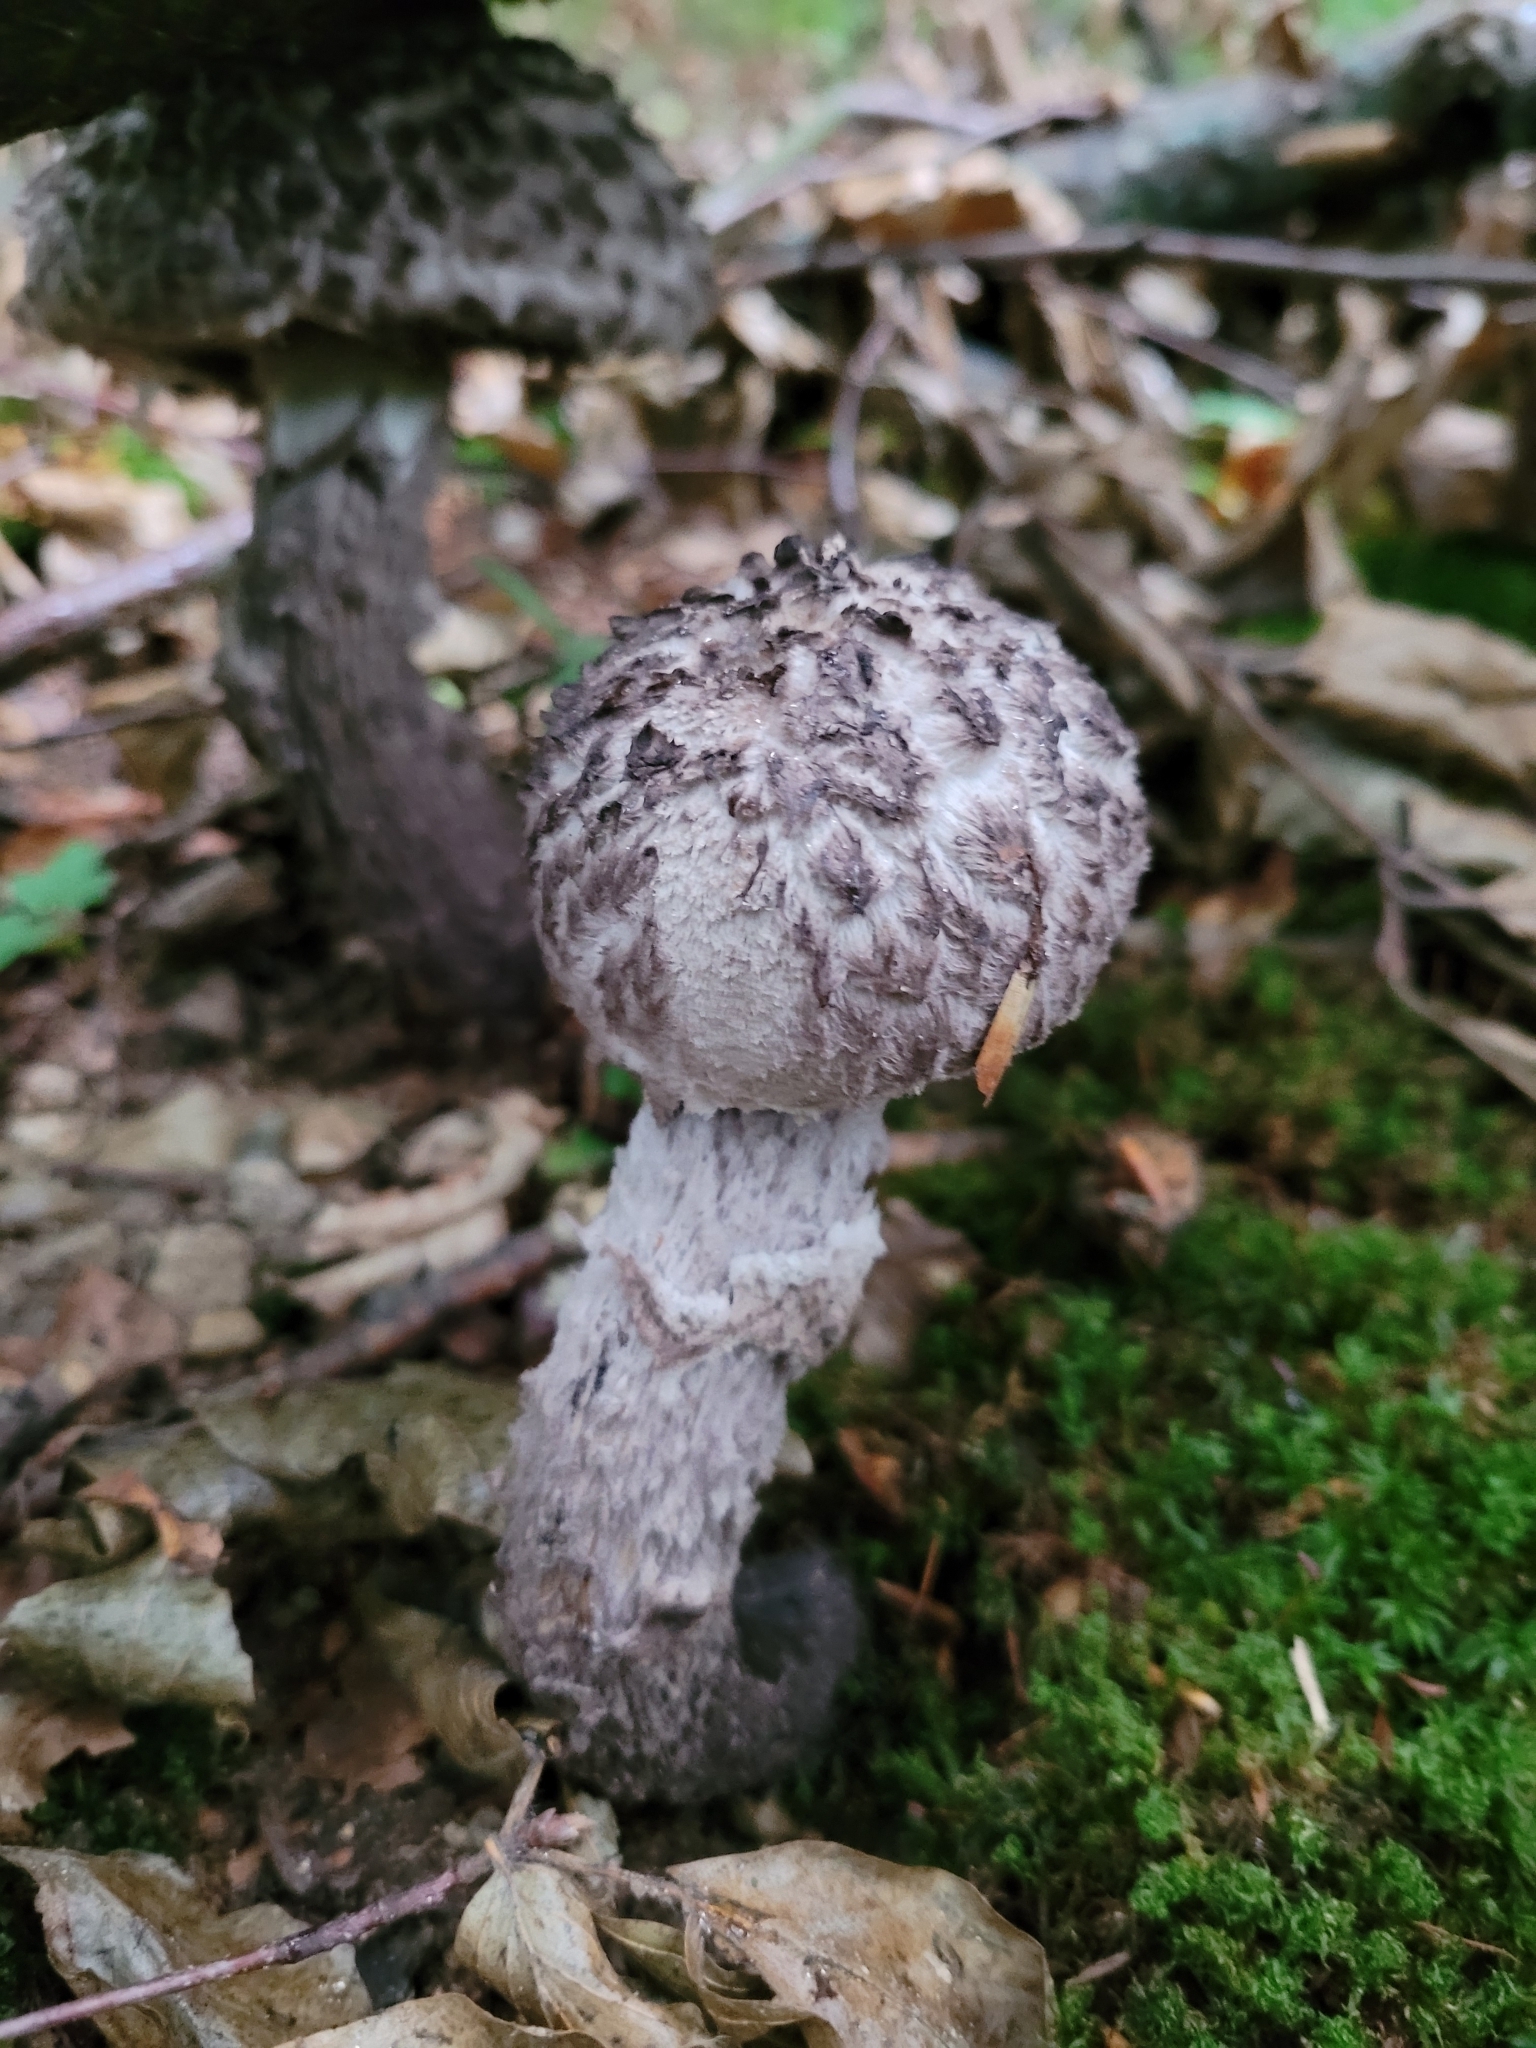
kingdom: Fungi
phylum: Basidiomycota
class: Agaricomycetes
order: Boletales
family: Boletaceae
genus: Strobilomyces
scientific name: Strobilomyces strobilaceus
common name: Old man of the woods
